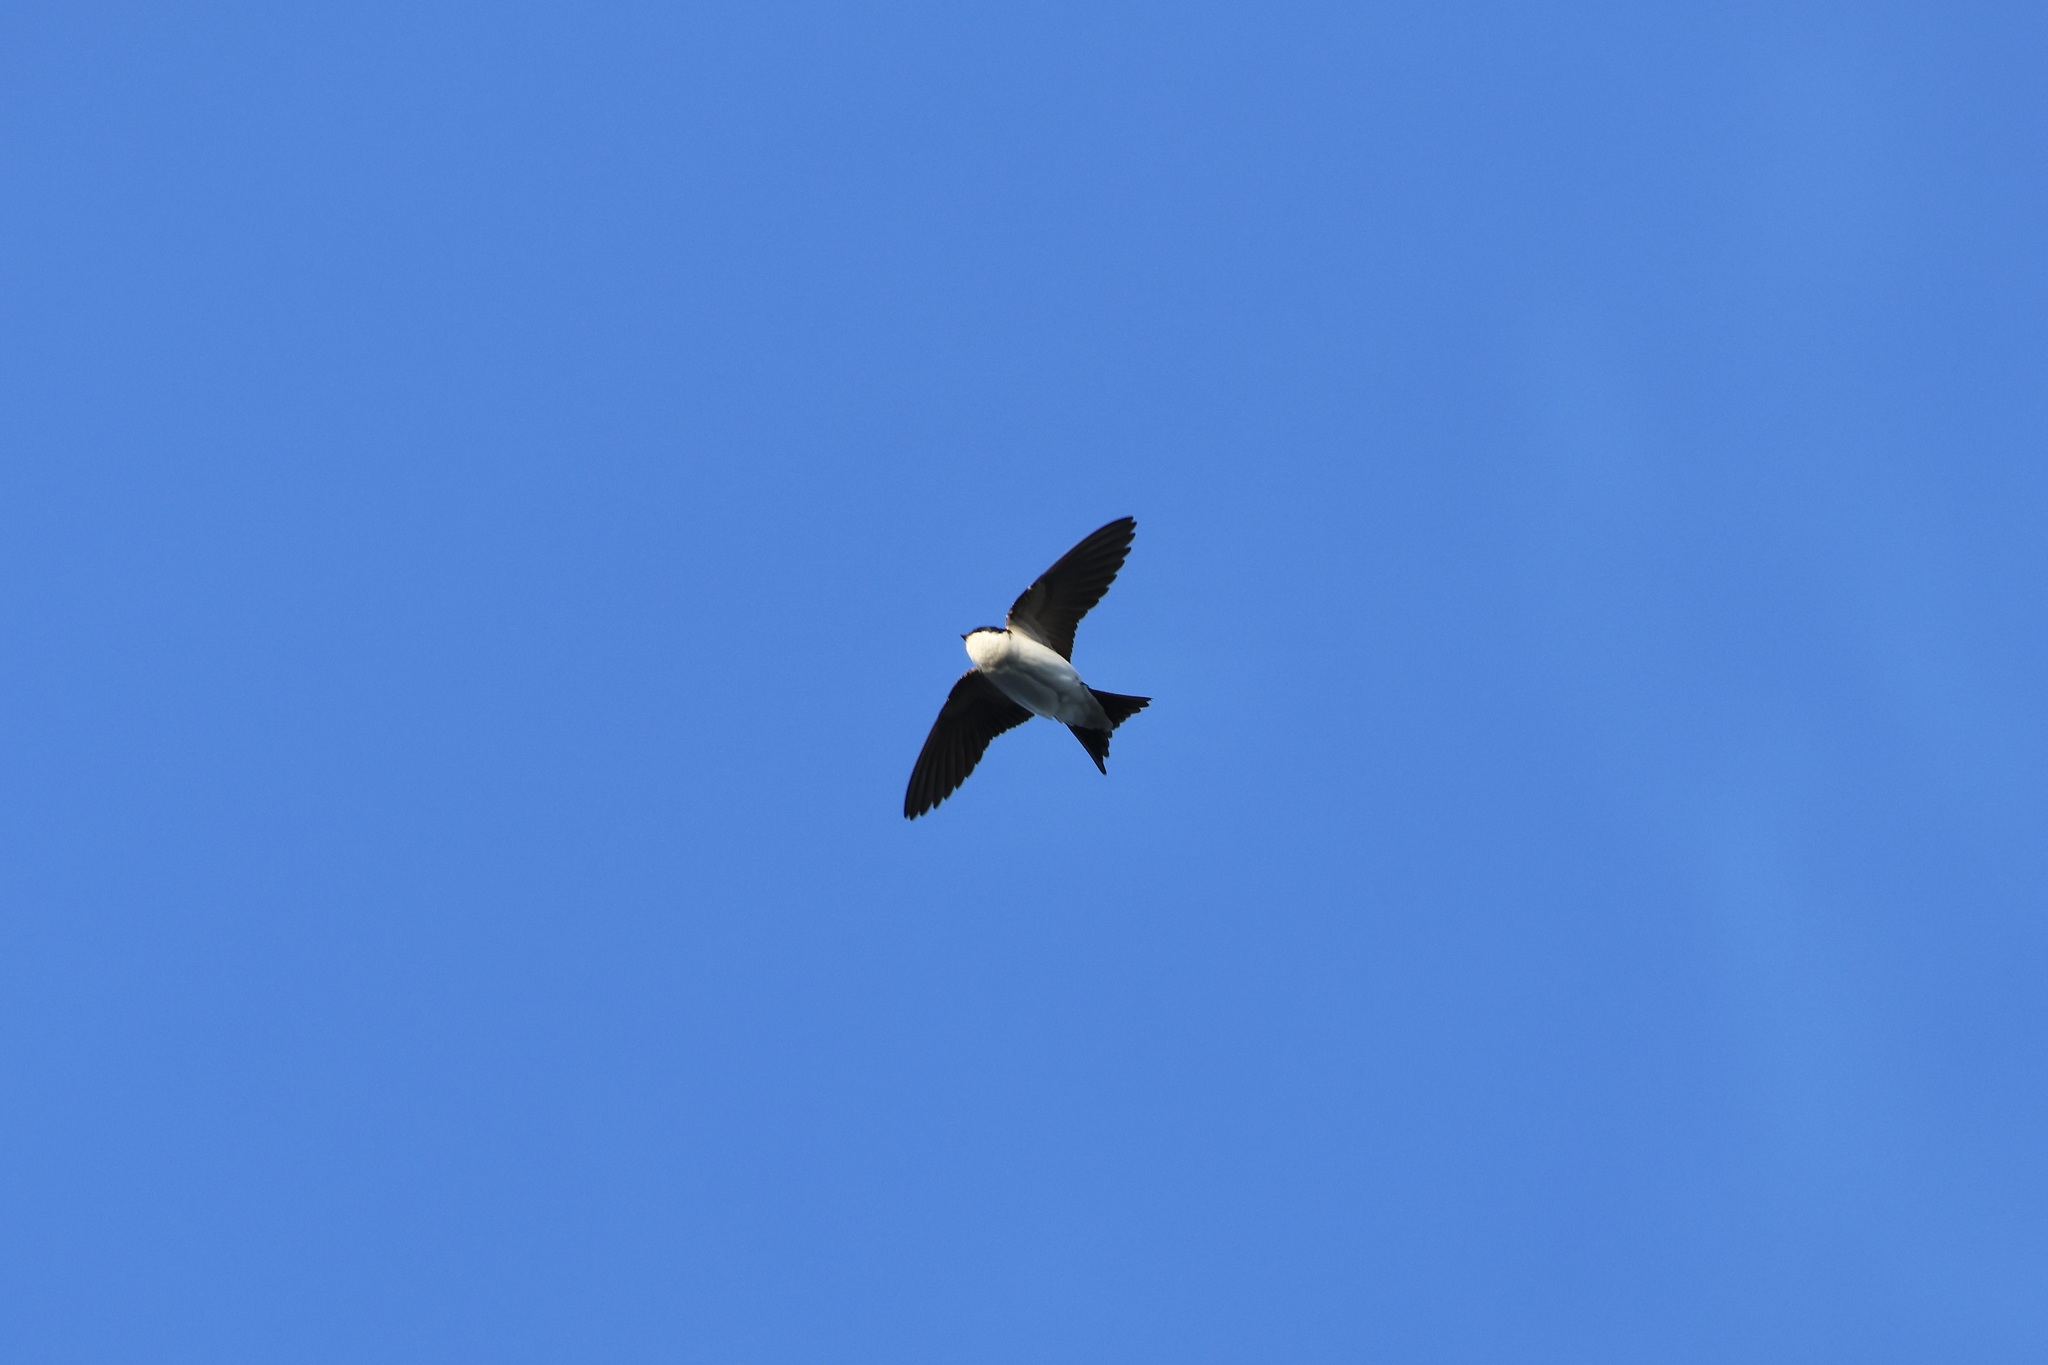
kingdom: Animalia
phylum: Chordata
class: Aves
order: Passeriformes
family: Hirundinidae
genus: Delichon
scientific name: Delichon urbicum
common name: Common house martin
